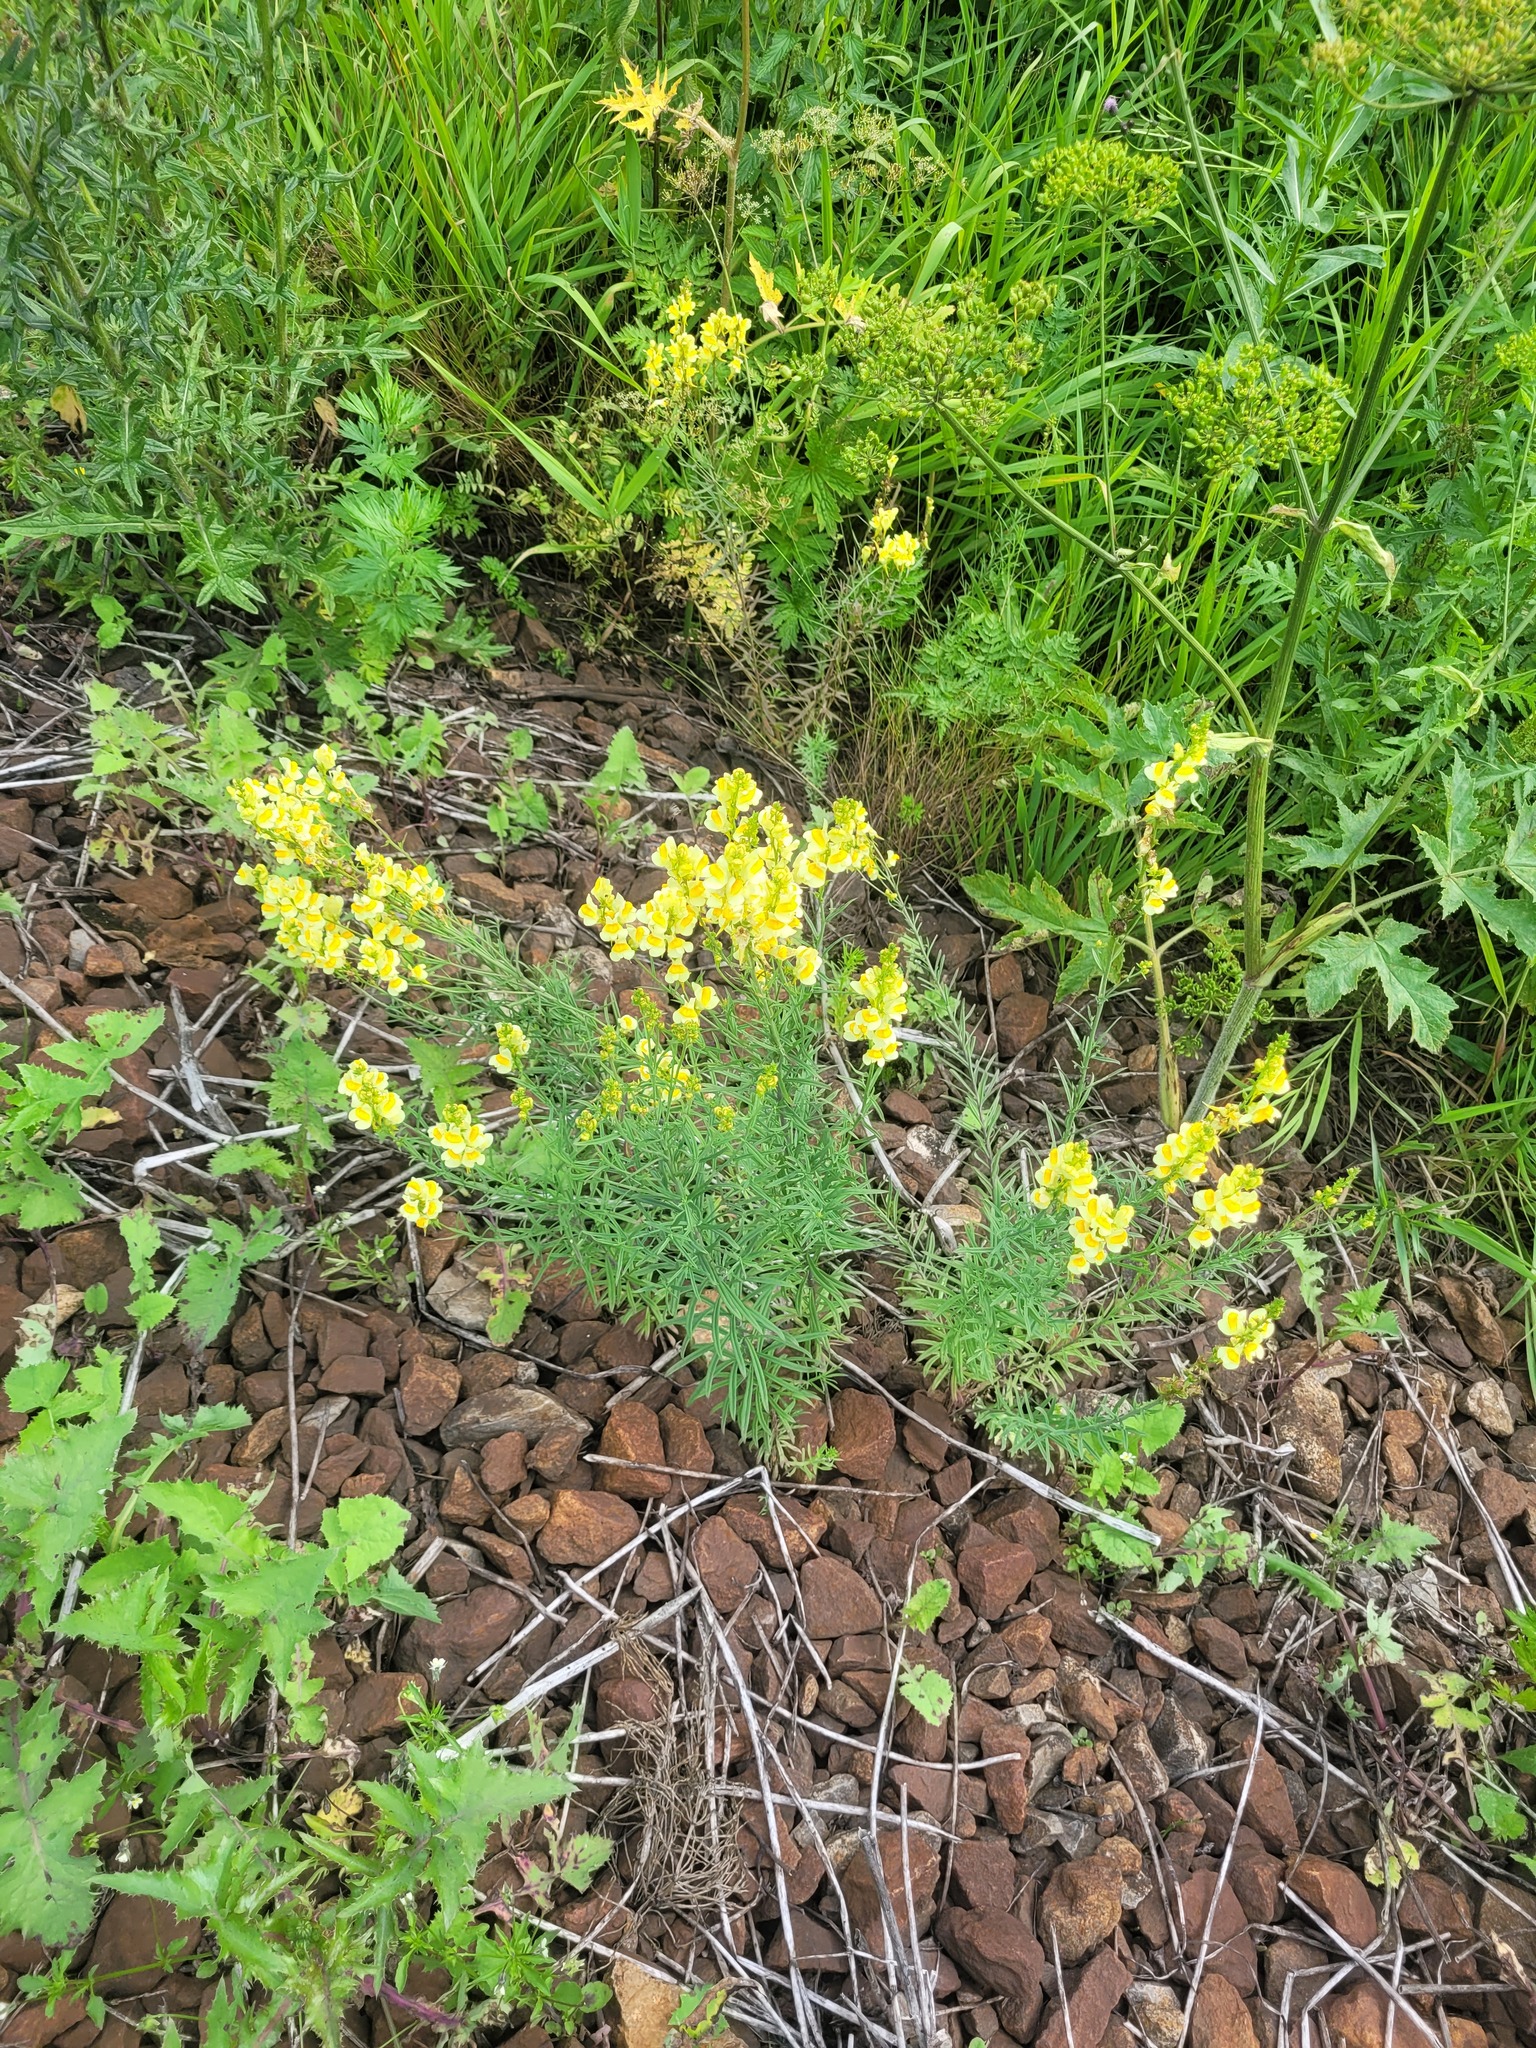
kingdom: Plantae
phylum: Tracheophyta
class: Magnoliopsida
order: Lamiales
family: Plantaginaceae
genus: Linaria
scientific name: Linaria vulgaris
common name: Butter and eggs
